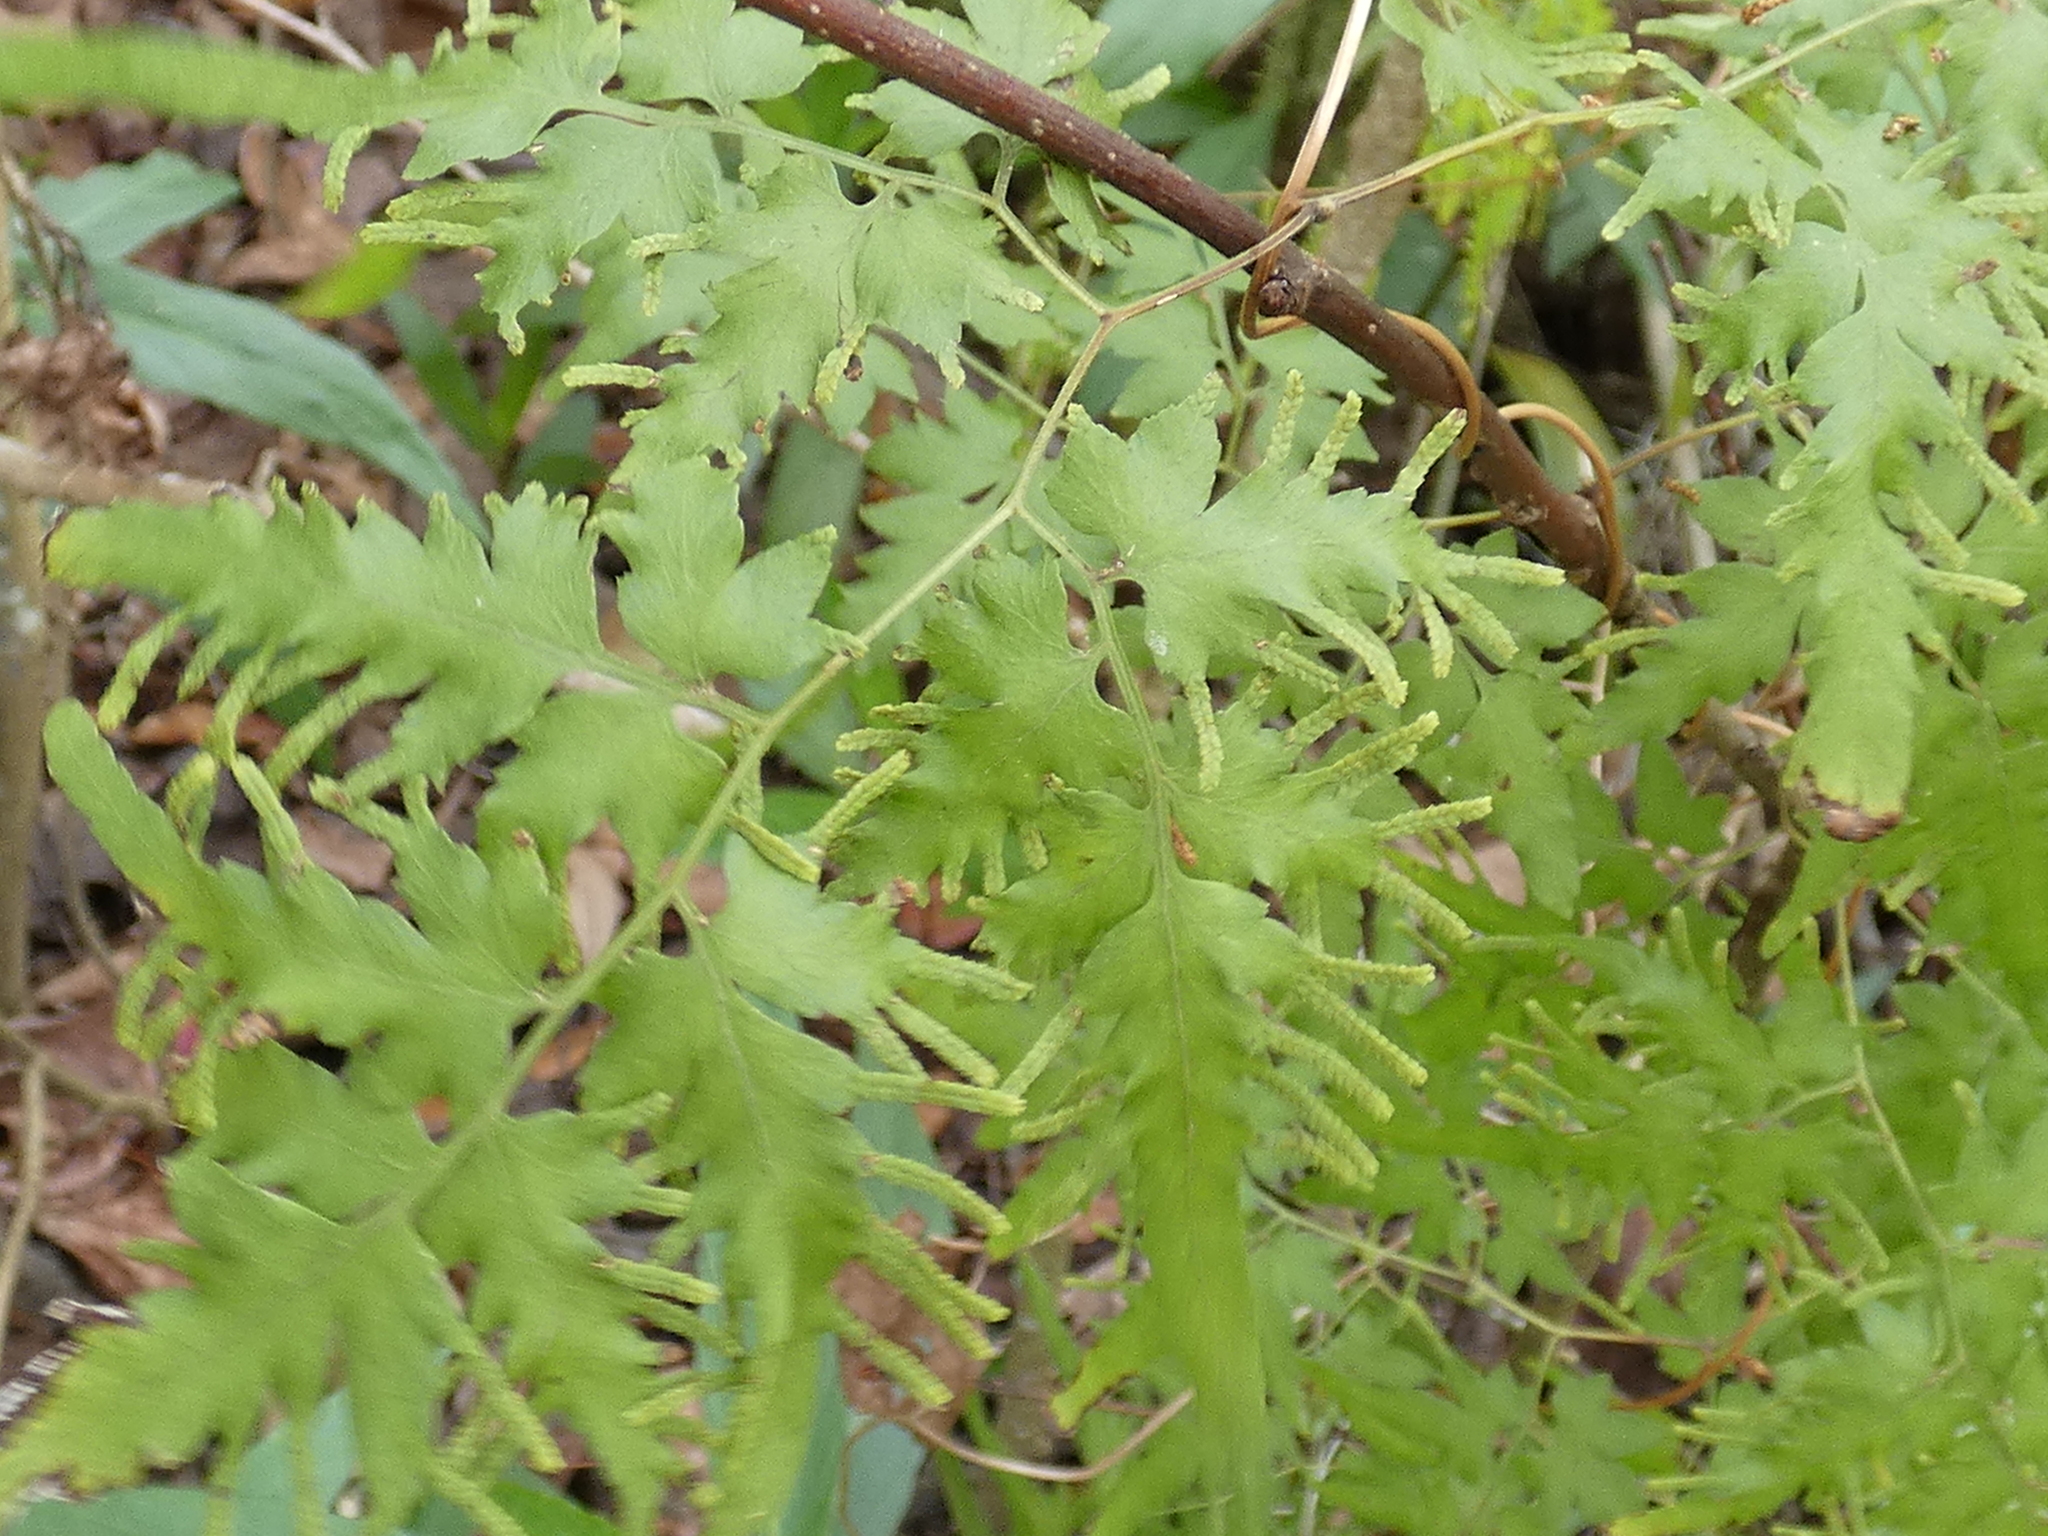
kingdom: Plantae
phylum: Tracheophyta
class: Polypodiopsida
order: Schizaeales
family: Lygodiaceae
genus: Lygodium
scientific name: Lygodium japonicum
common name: Japanese climbing fern
